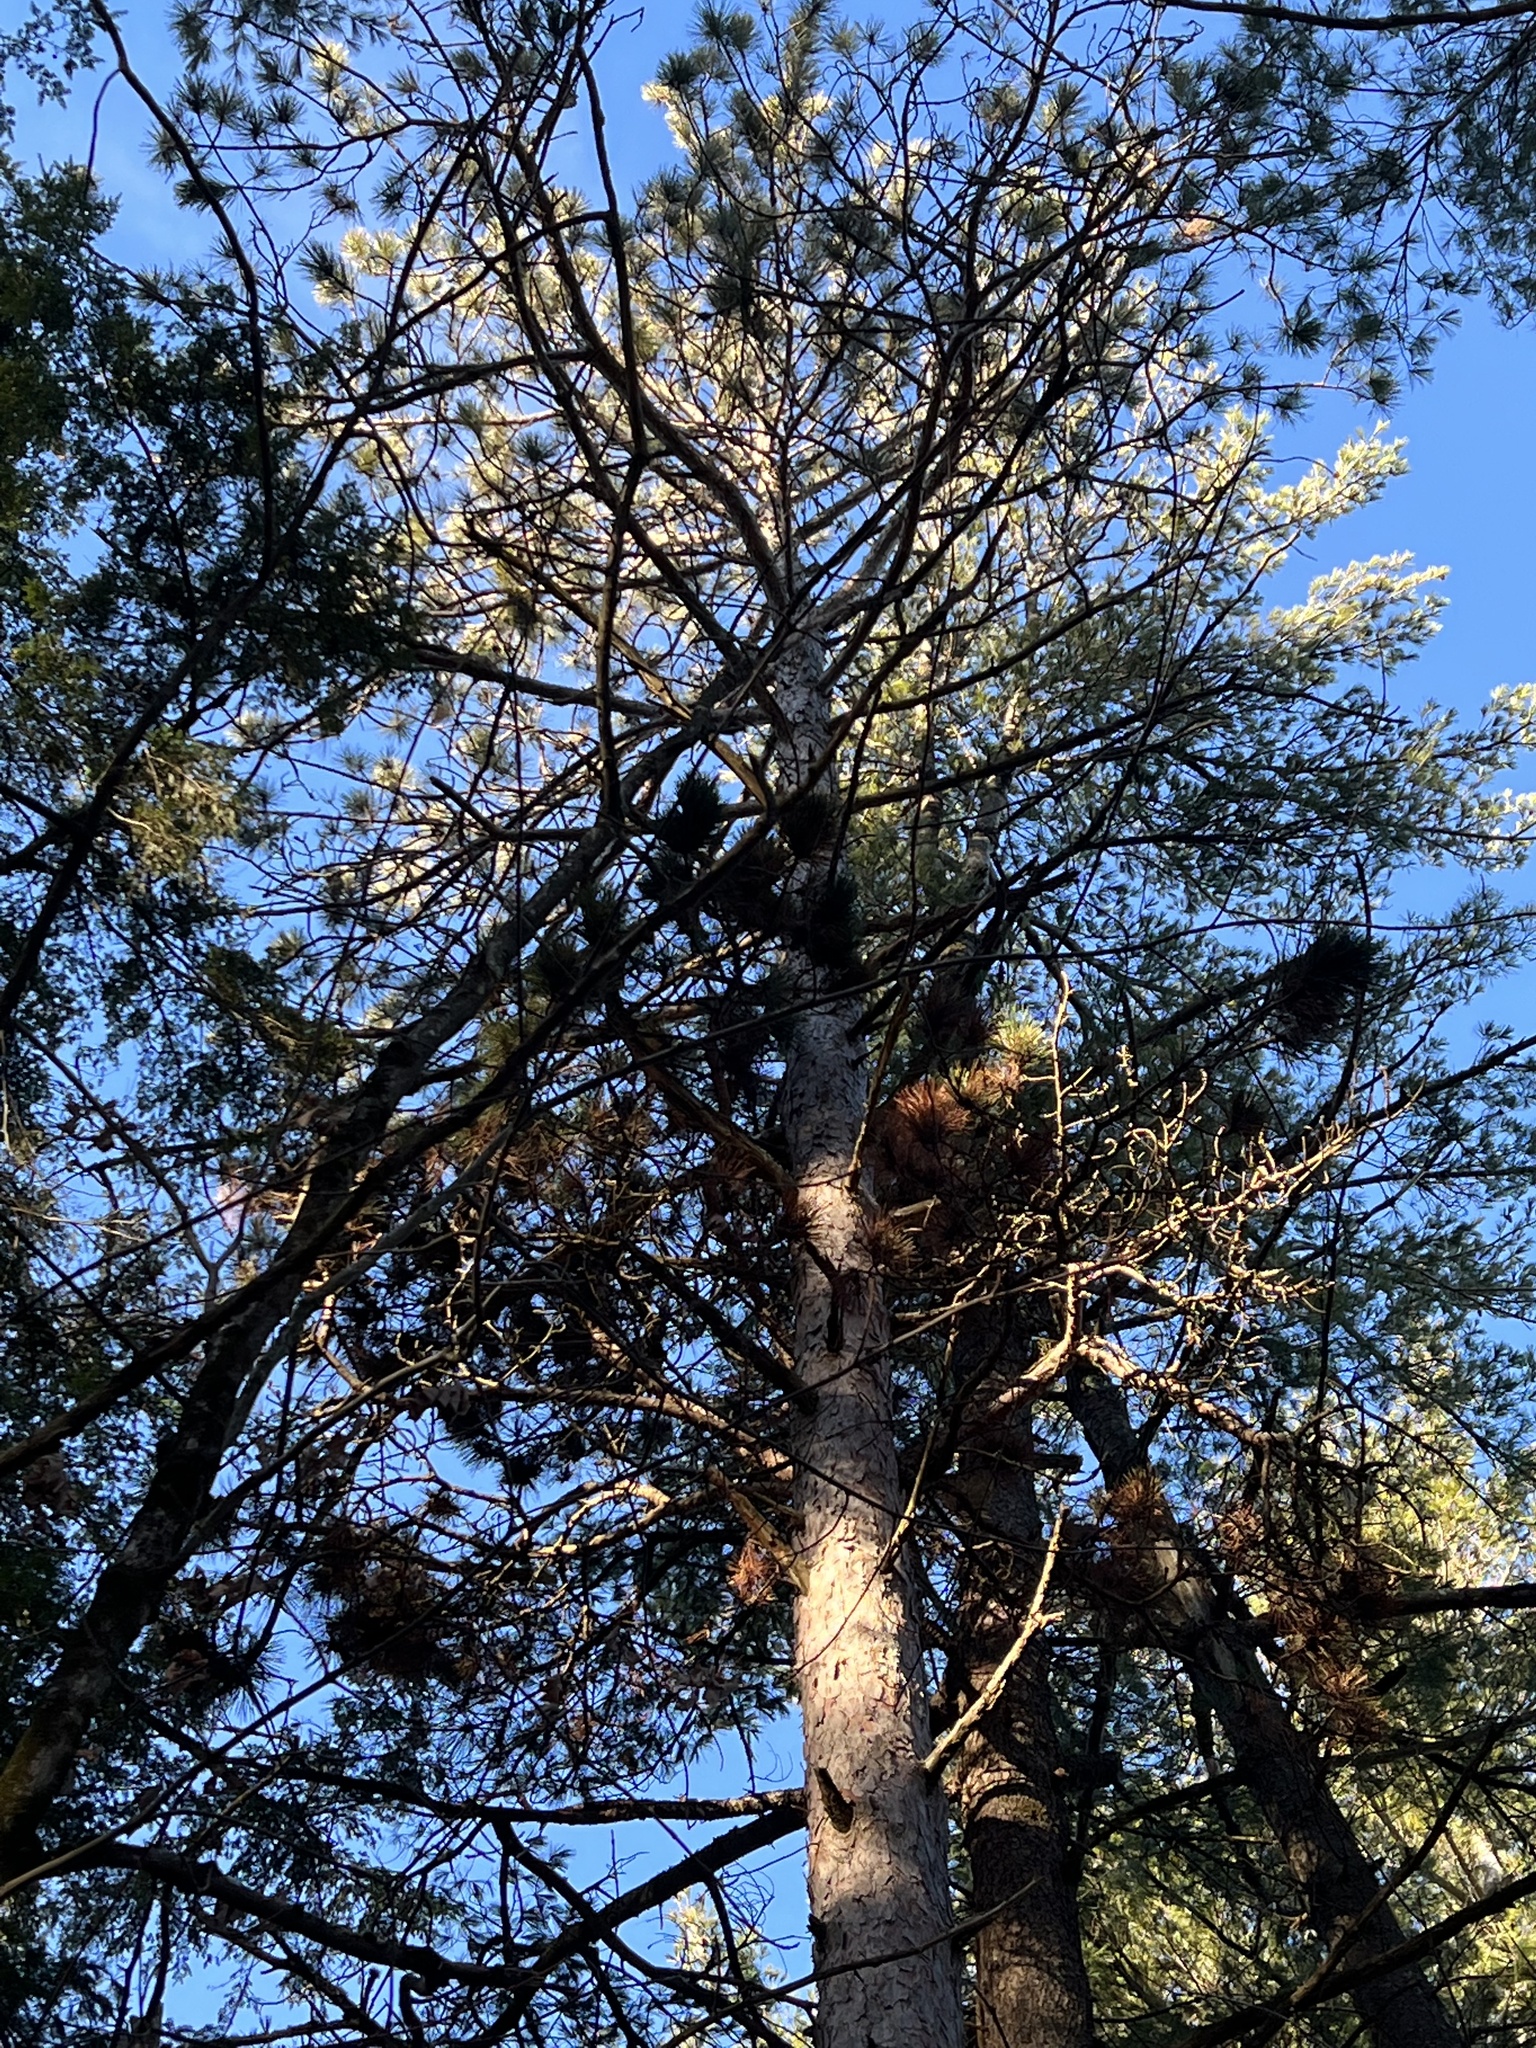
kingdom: Plantae
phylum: Tracheophyta
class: Pinopsida
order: Pinales
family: Pinaceae
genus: Pinus
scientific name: Pinus resinosa
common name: Norway pine
